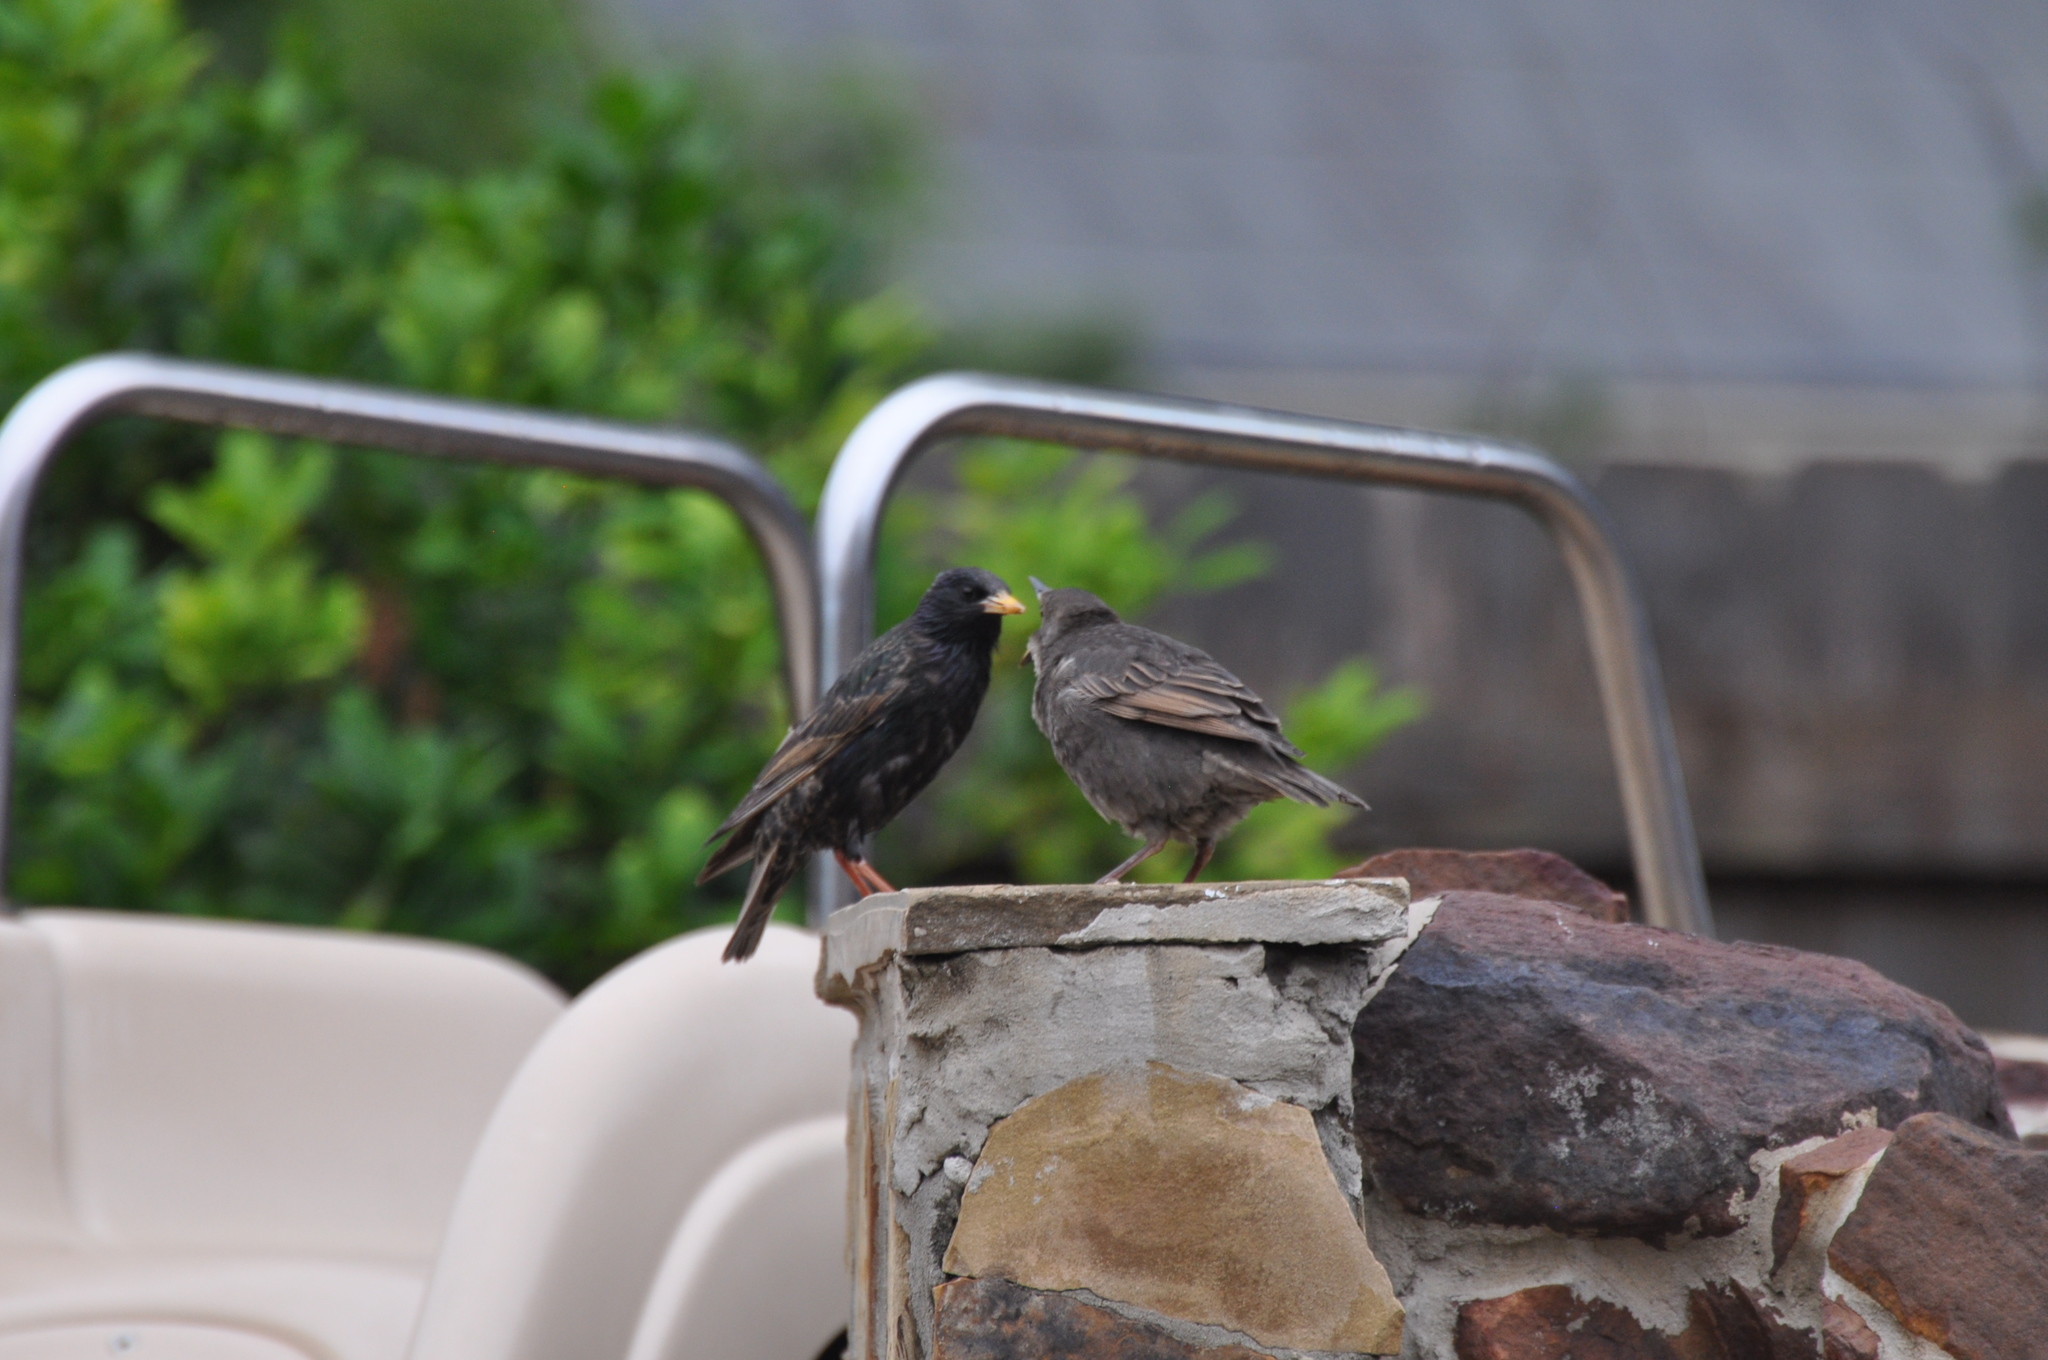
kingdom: Animalia
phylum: Chordata
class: Aves
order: Passeriformes
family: Sturnidae
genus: Sturnus
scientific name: Sturnus vulgaris
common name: Common starling
